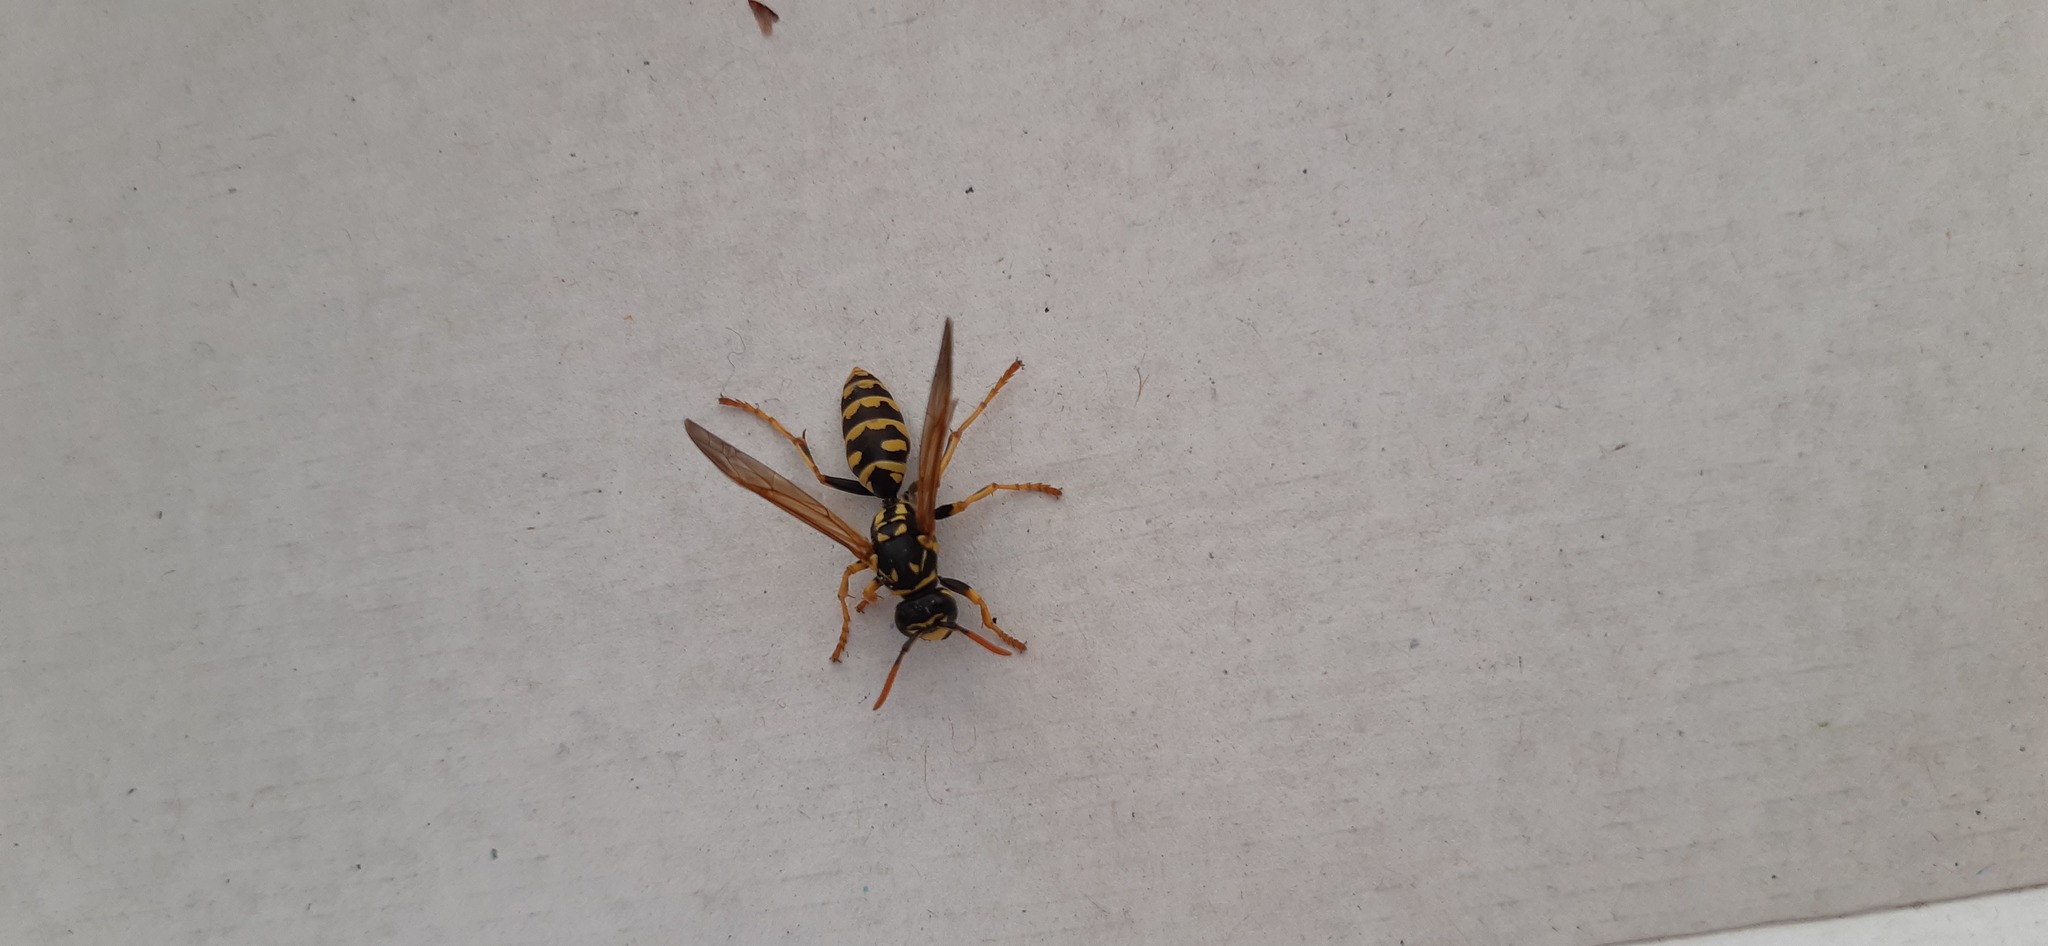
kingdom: Animalia
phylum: Arthropoda
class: Insecta
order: Hymenoptera
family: Eumenidae
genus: Polistes
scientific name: Polistes dominula
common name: Paper wasp
